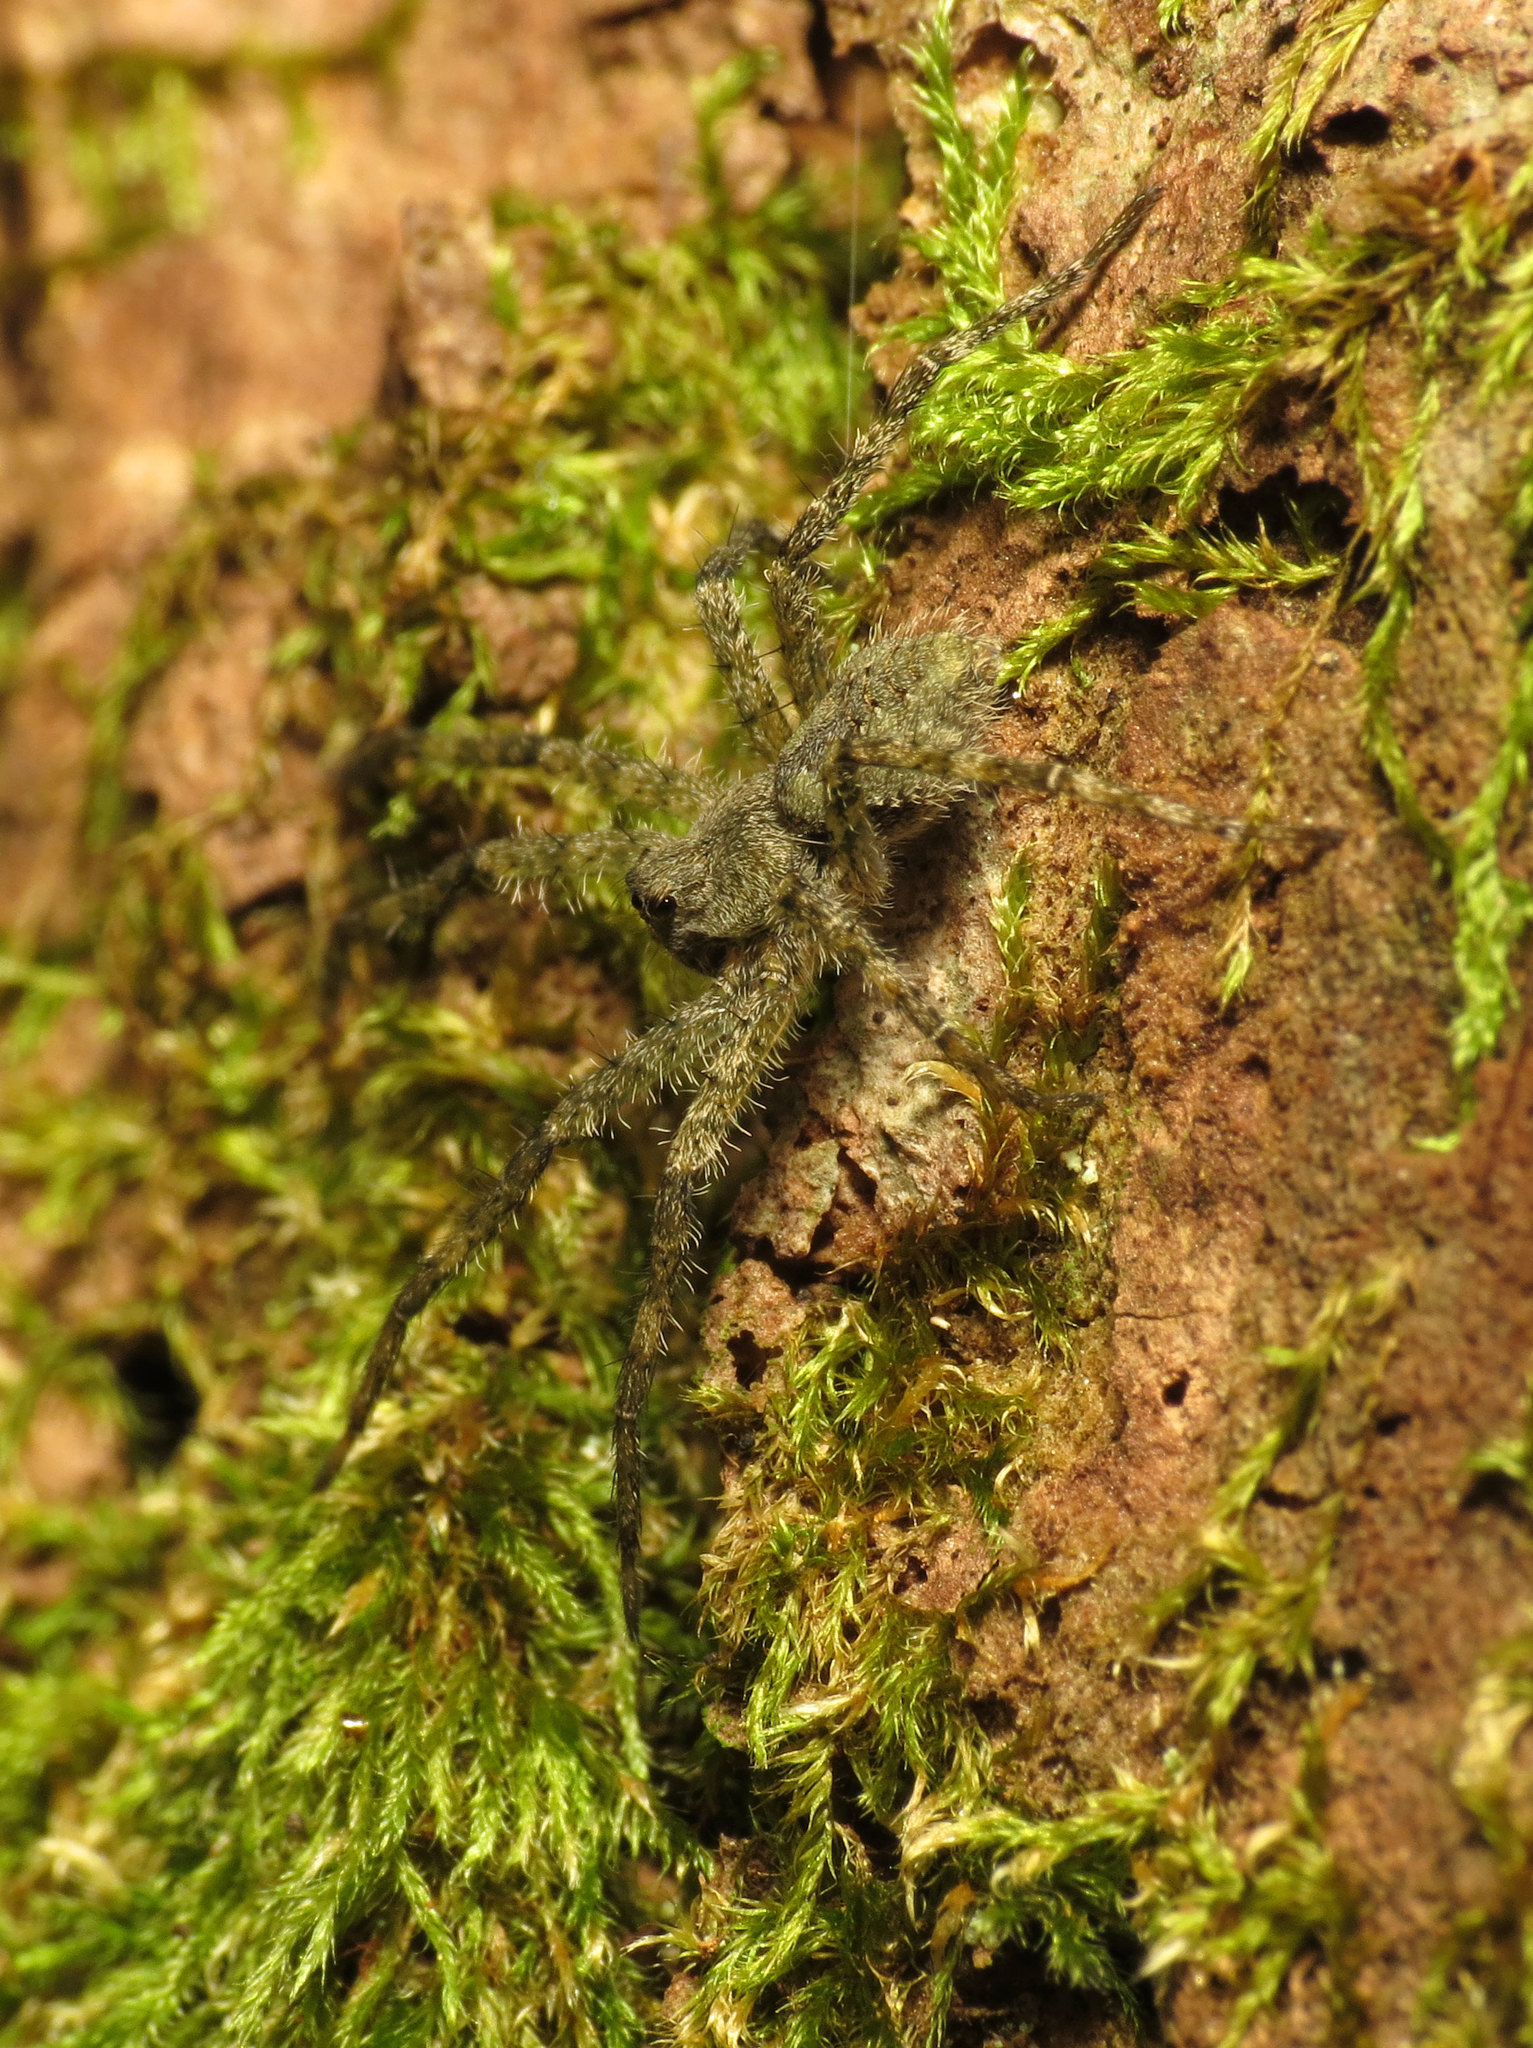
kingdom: Animalia
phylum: Arthropoda
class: Arachnida
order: Araneae
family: Pisauridae
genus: Dolomedes
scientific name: Dolomedes albineus
